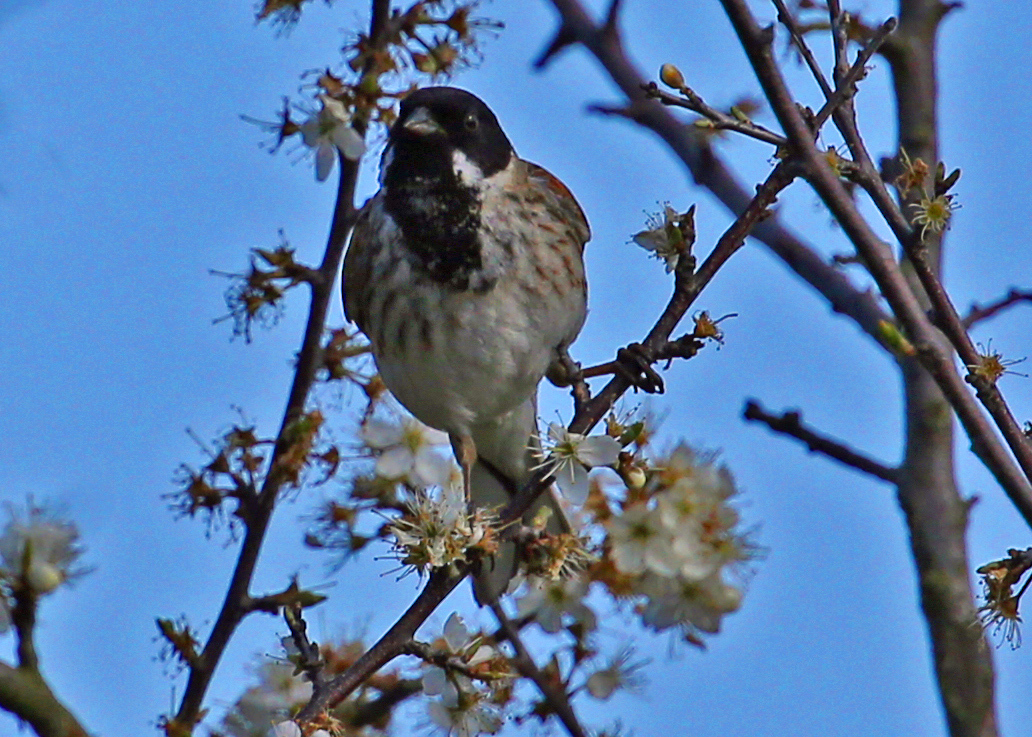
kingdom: Animalia
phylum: Chordata
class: Aves
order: Passeriformes
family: Emberizidae
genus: Emberiza
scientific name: Emberiza schoeniclus
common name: Reed bunting
